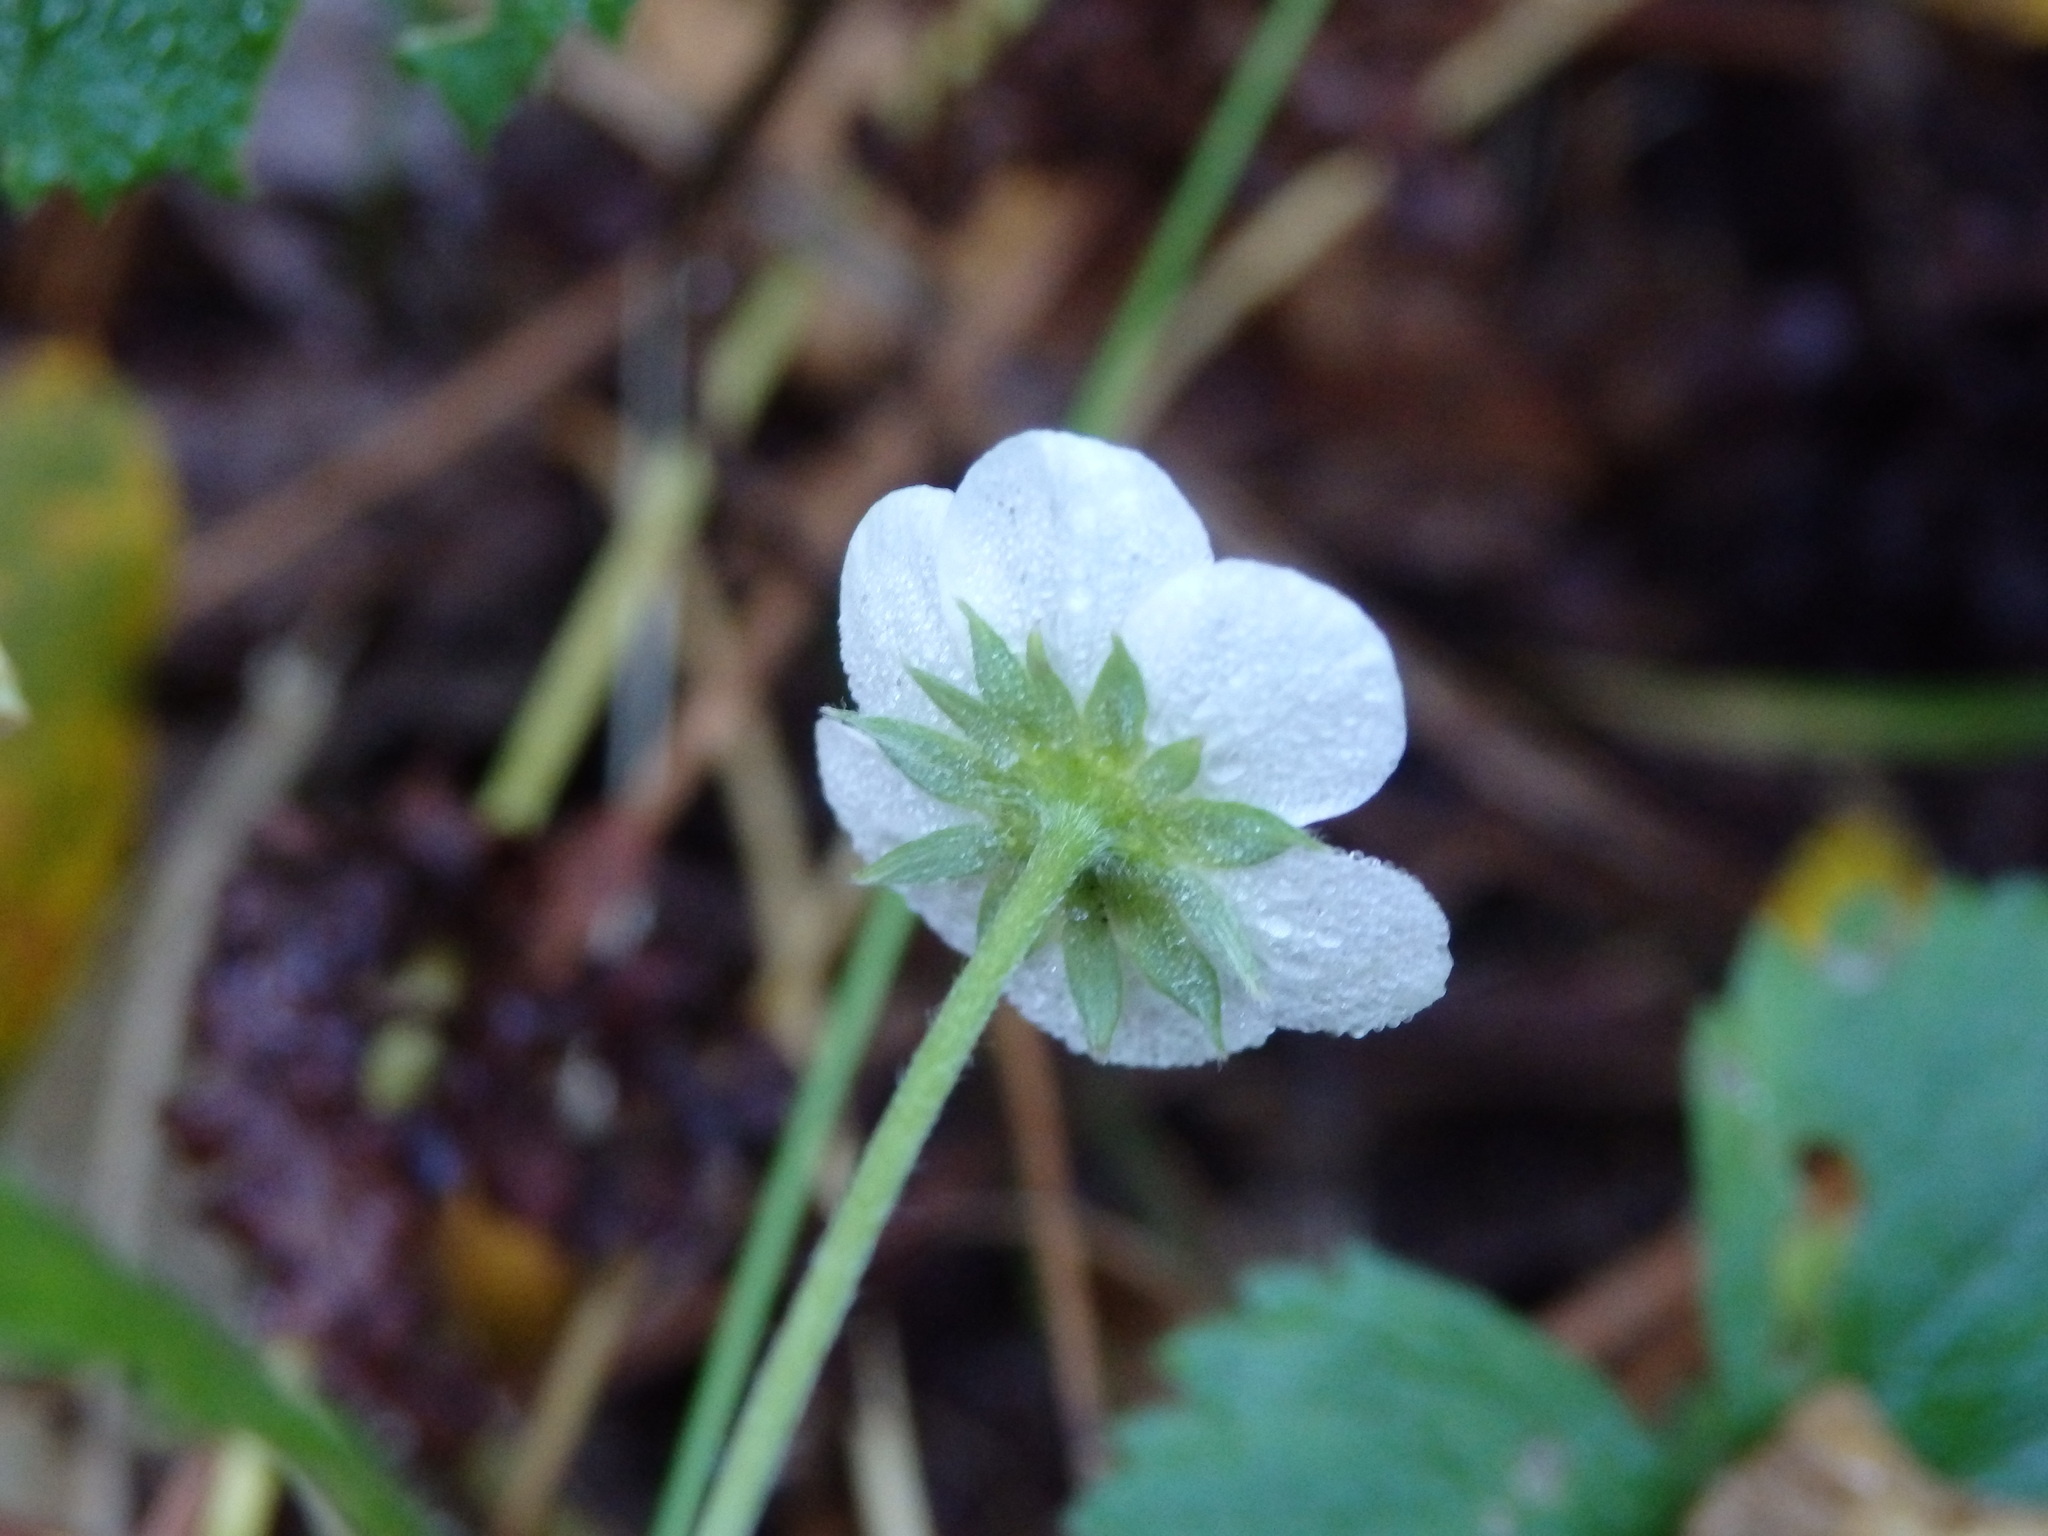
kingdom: Plantae
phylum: Tracheophyta
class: Magnoliopsida
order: Rosales
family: Rosaceae
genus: Fragaria
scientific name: Fragaria vesca
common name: Wild strawberry
